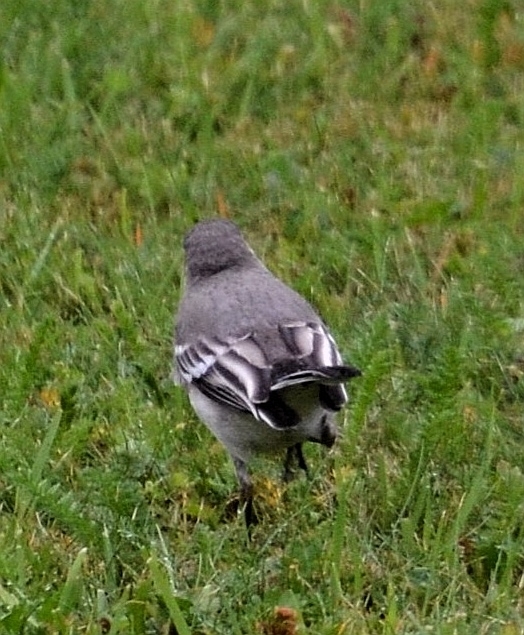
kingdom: Animalia
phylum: Chordata
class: Aves
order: Passeriformes
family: Motacillidae
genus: Motacilla
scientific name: Motacilla alba
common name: White wagtail
